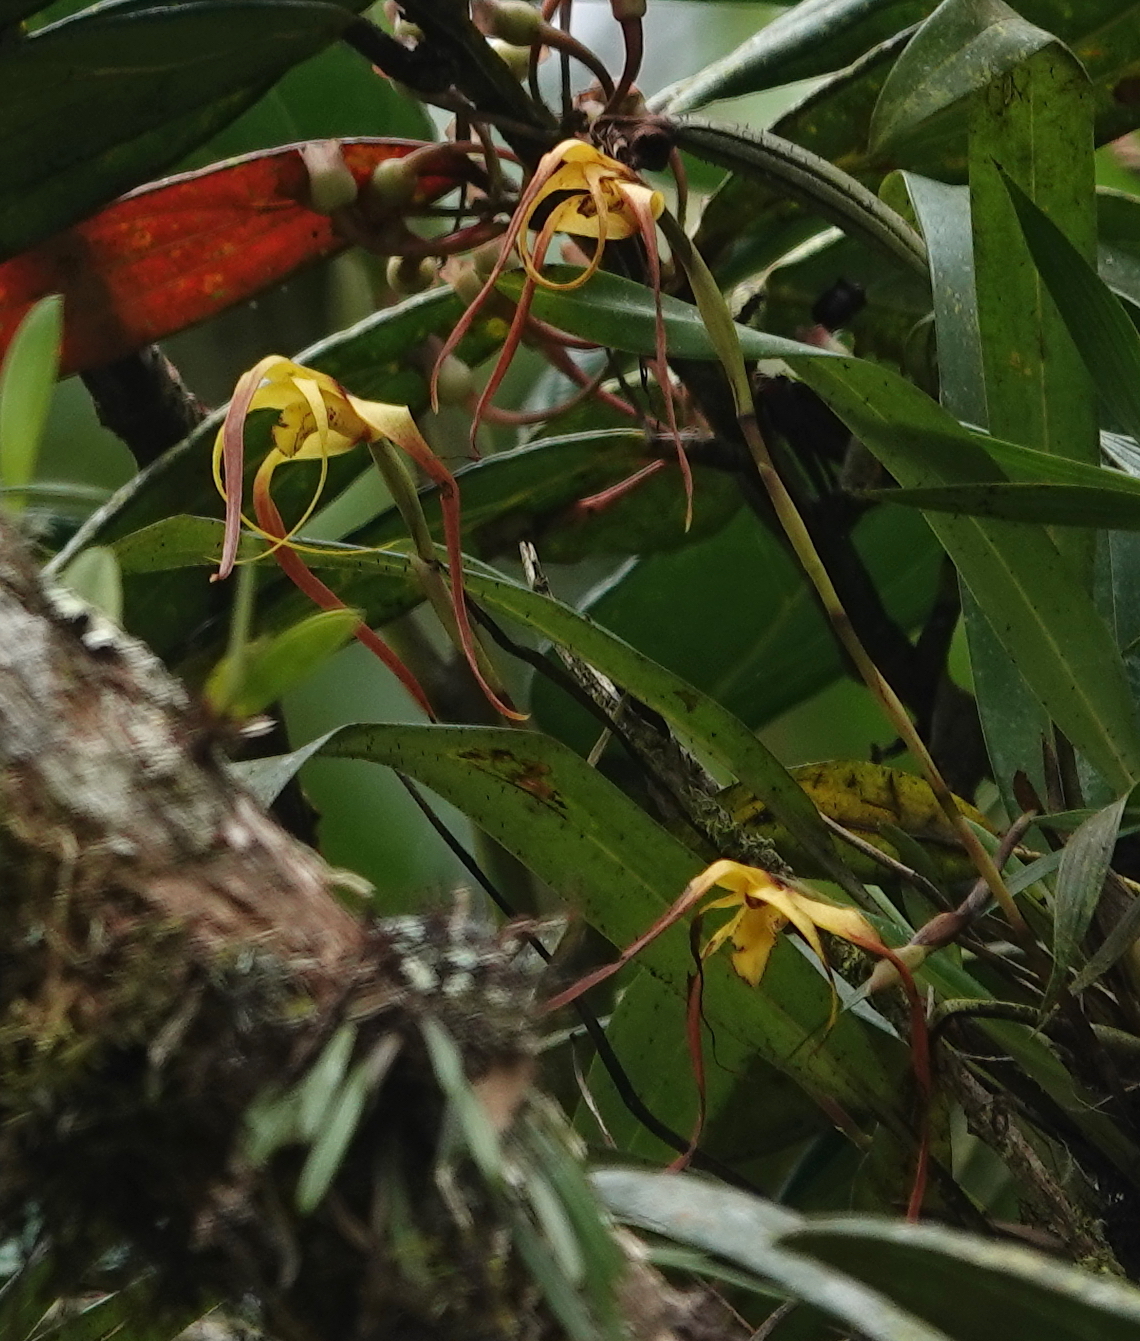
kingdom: Plantae
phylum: Tracheophyta
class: Liliopsida
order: Asparagales
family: Orchidaceae
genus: Maxillaria
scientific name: Maxillaria lepidota
